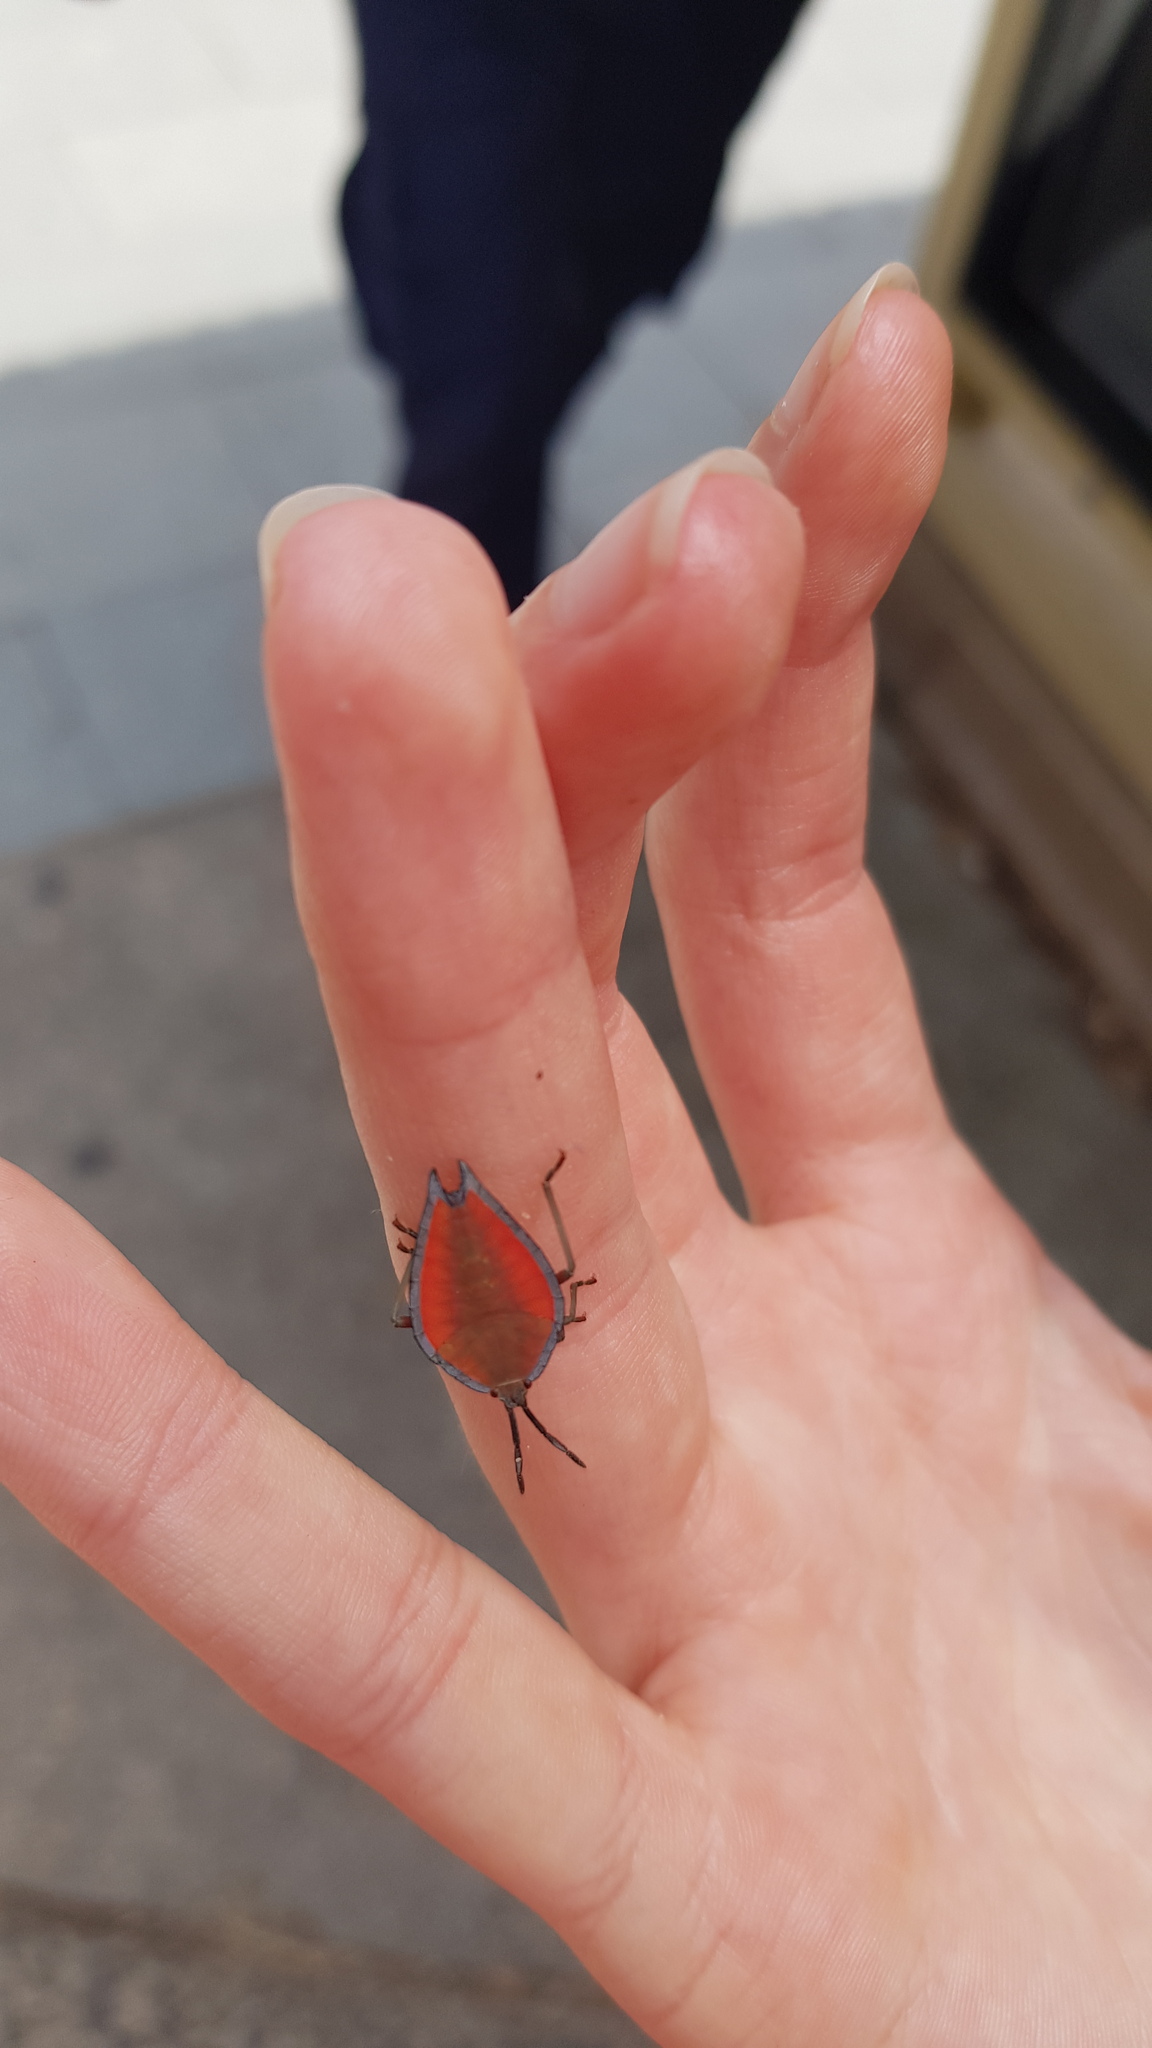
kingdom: Animalia
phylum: Arthropoda
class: Insecta
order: Hemiptera
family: Tessaratomidae
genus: Lyramorpha
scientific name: Lyramorpha rosea
